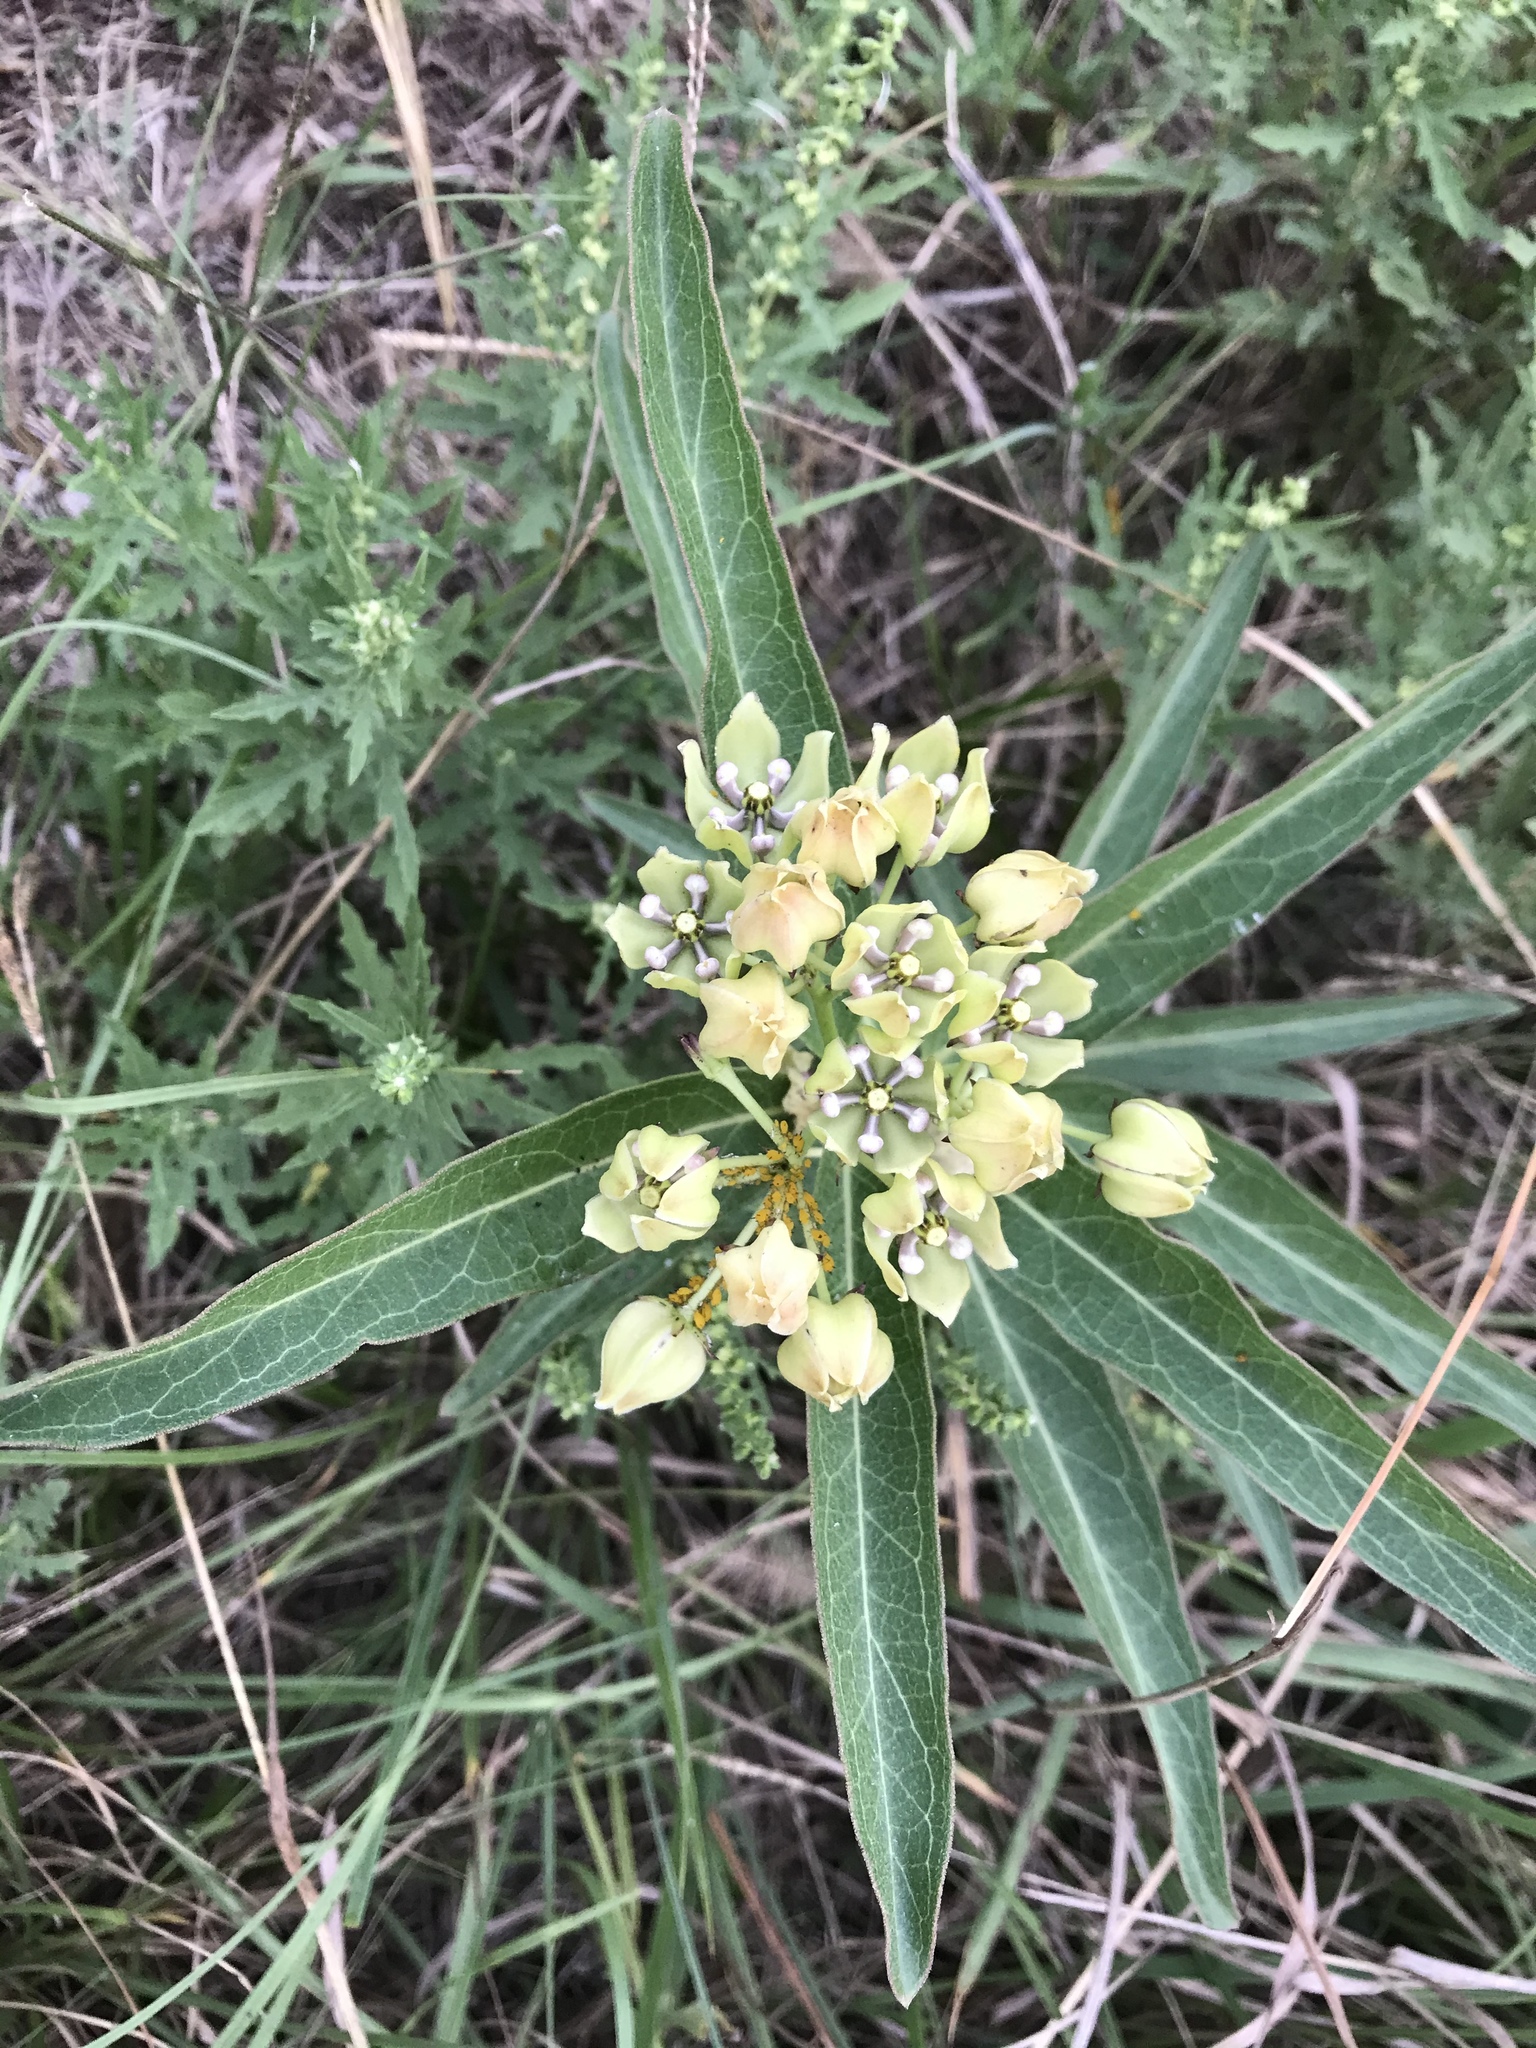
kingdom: Plantae
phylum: Tracheophyta
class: Magnoliopsida
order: Gentianales
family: Apocynaceae
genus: Asclepias
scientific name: Asclepias viridis
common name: Antelope-horns
